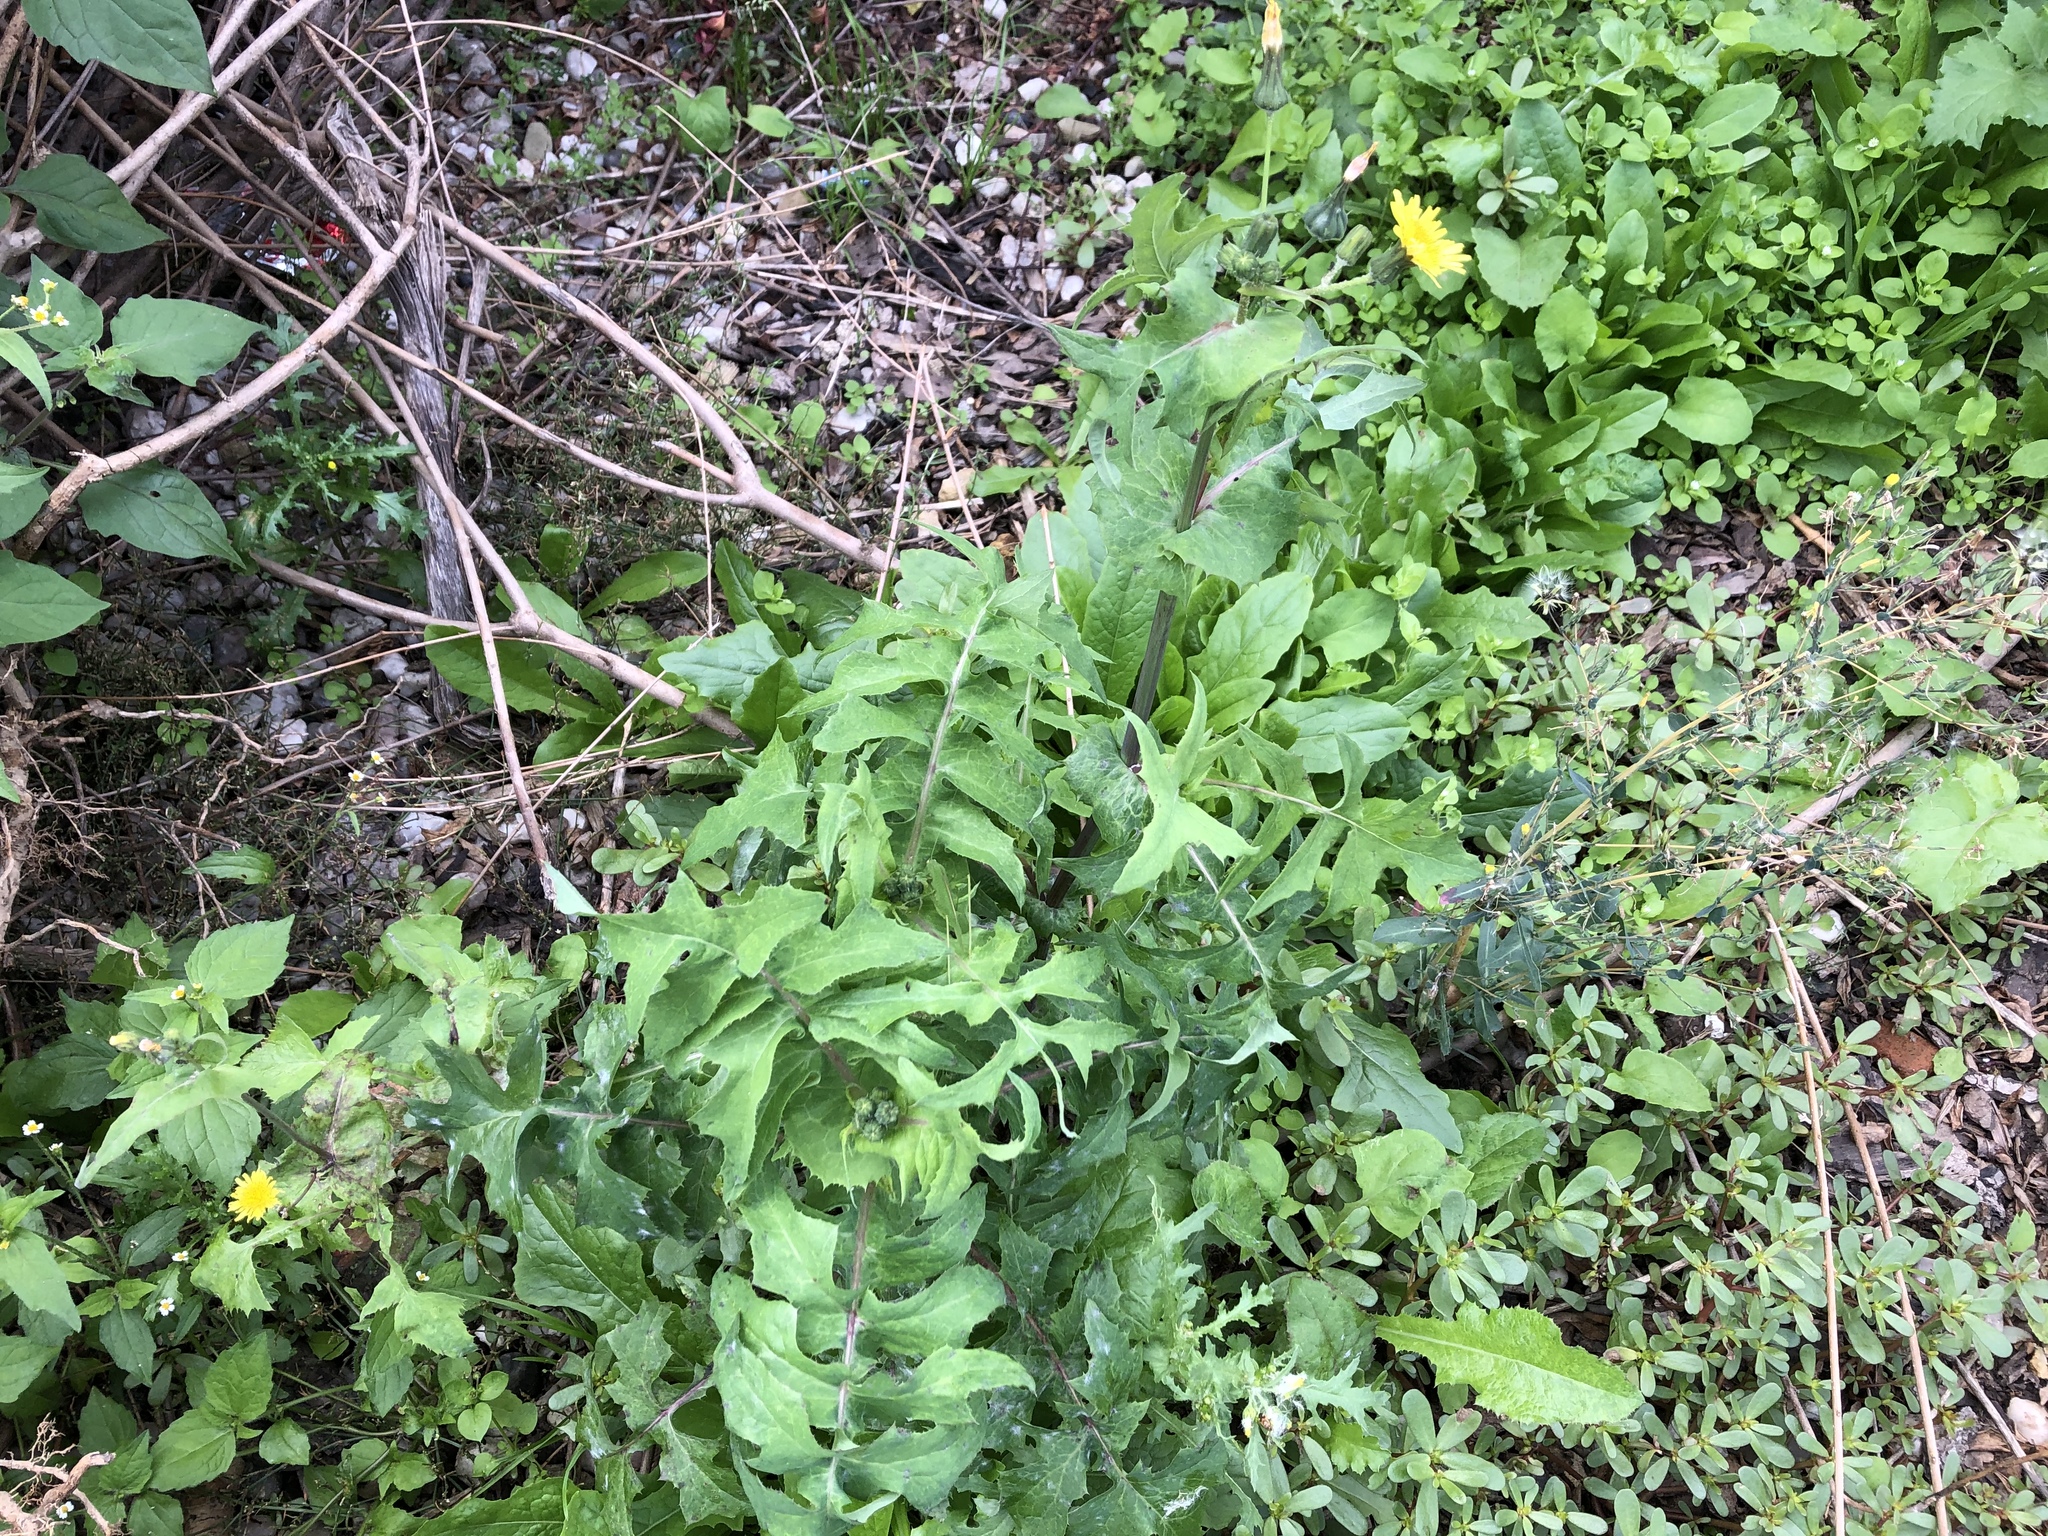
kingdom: Plantae
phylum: Tracheophyta
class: Magnoliopsida
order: Asterales
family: Asteraceae
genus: Sonchus
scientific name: Sonchus oleraceus
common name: Common sowthistle
